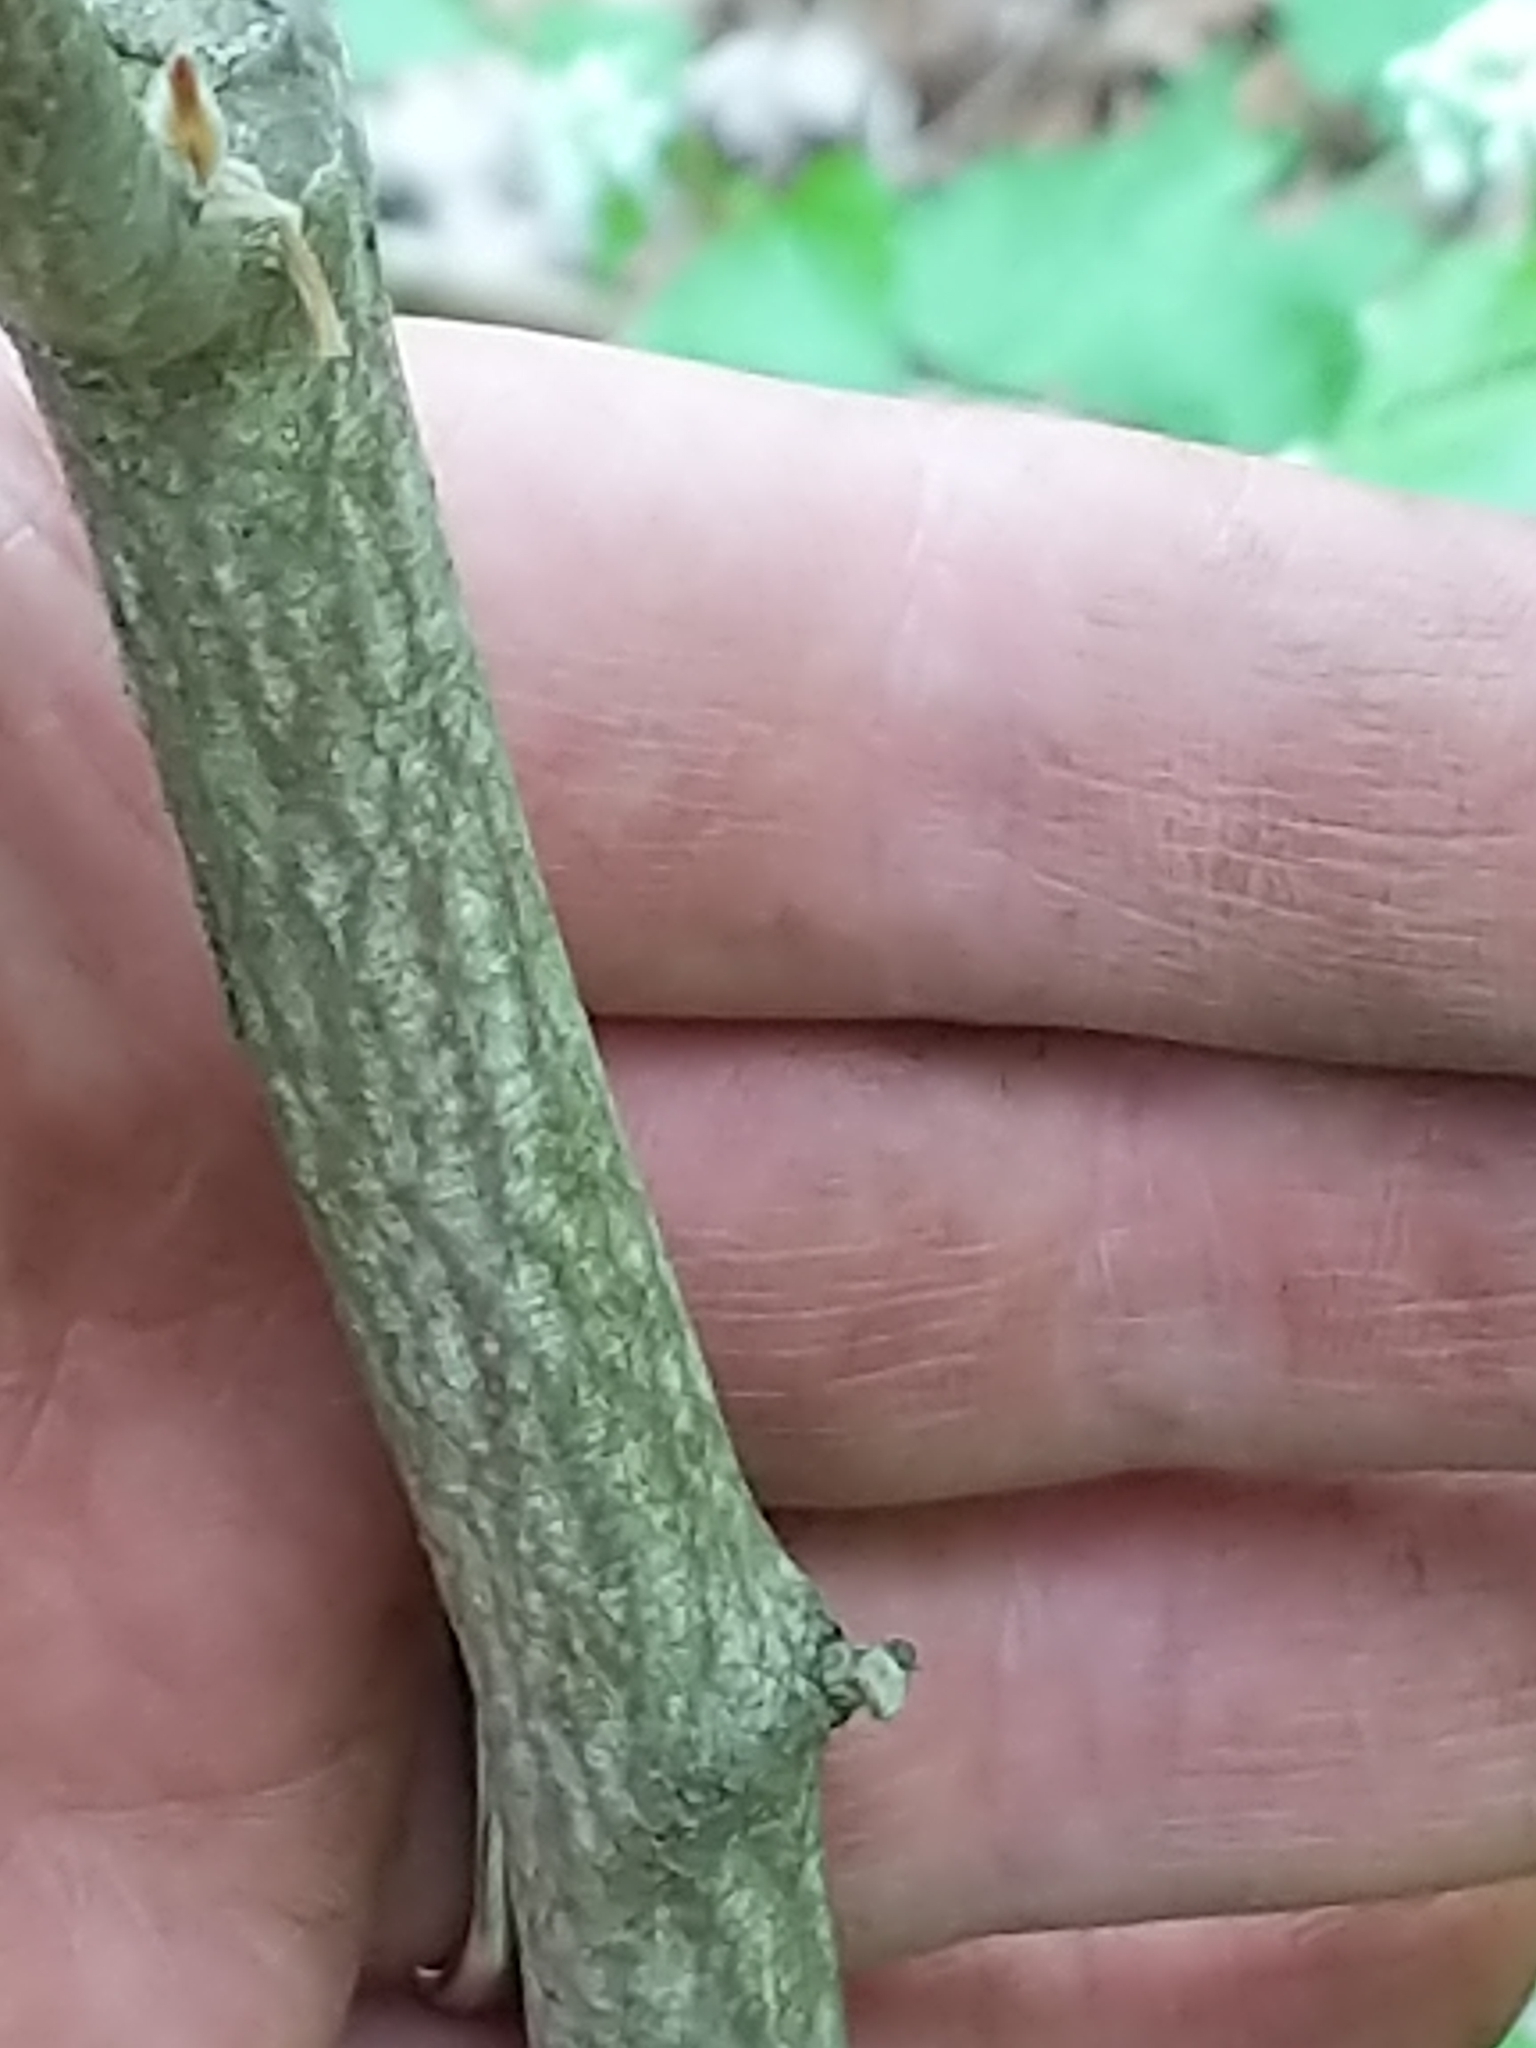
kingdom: Plantae
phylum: Tracheophyta
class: Magnoliopsida
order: Crossosomatales
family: Staphyleaceae
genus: Staphylea
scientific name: Staphylea trifolia
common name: American bladdernut
